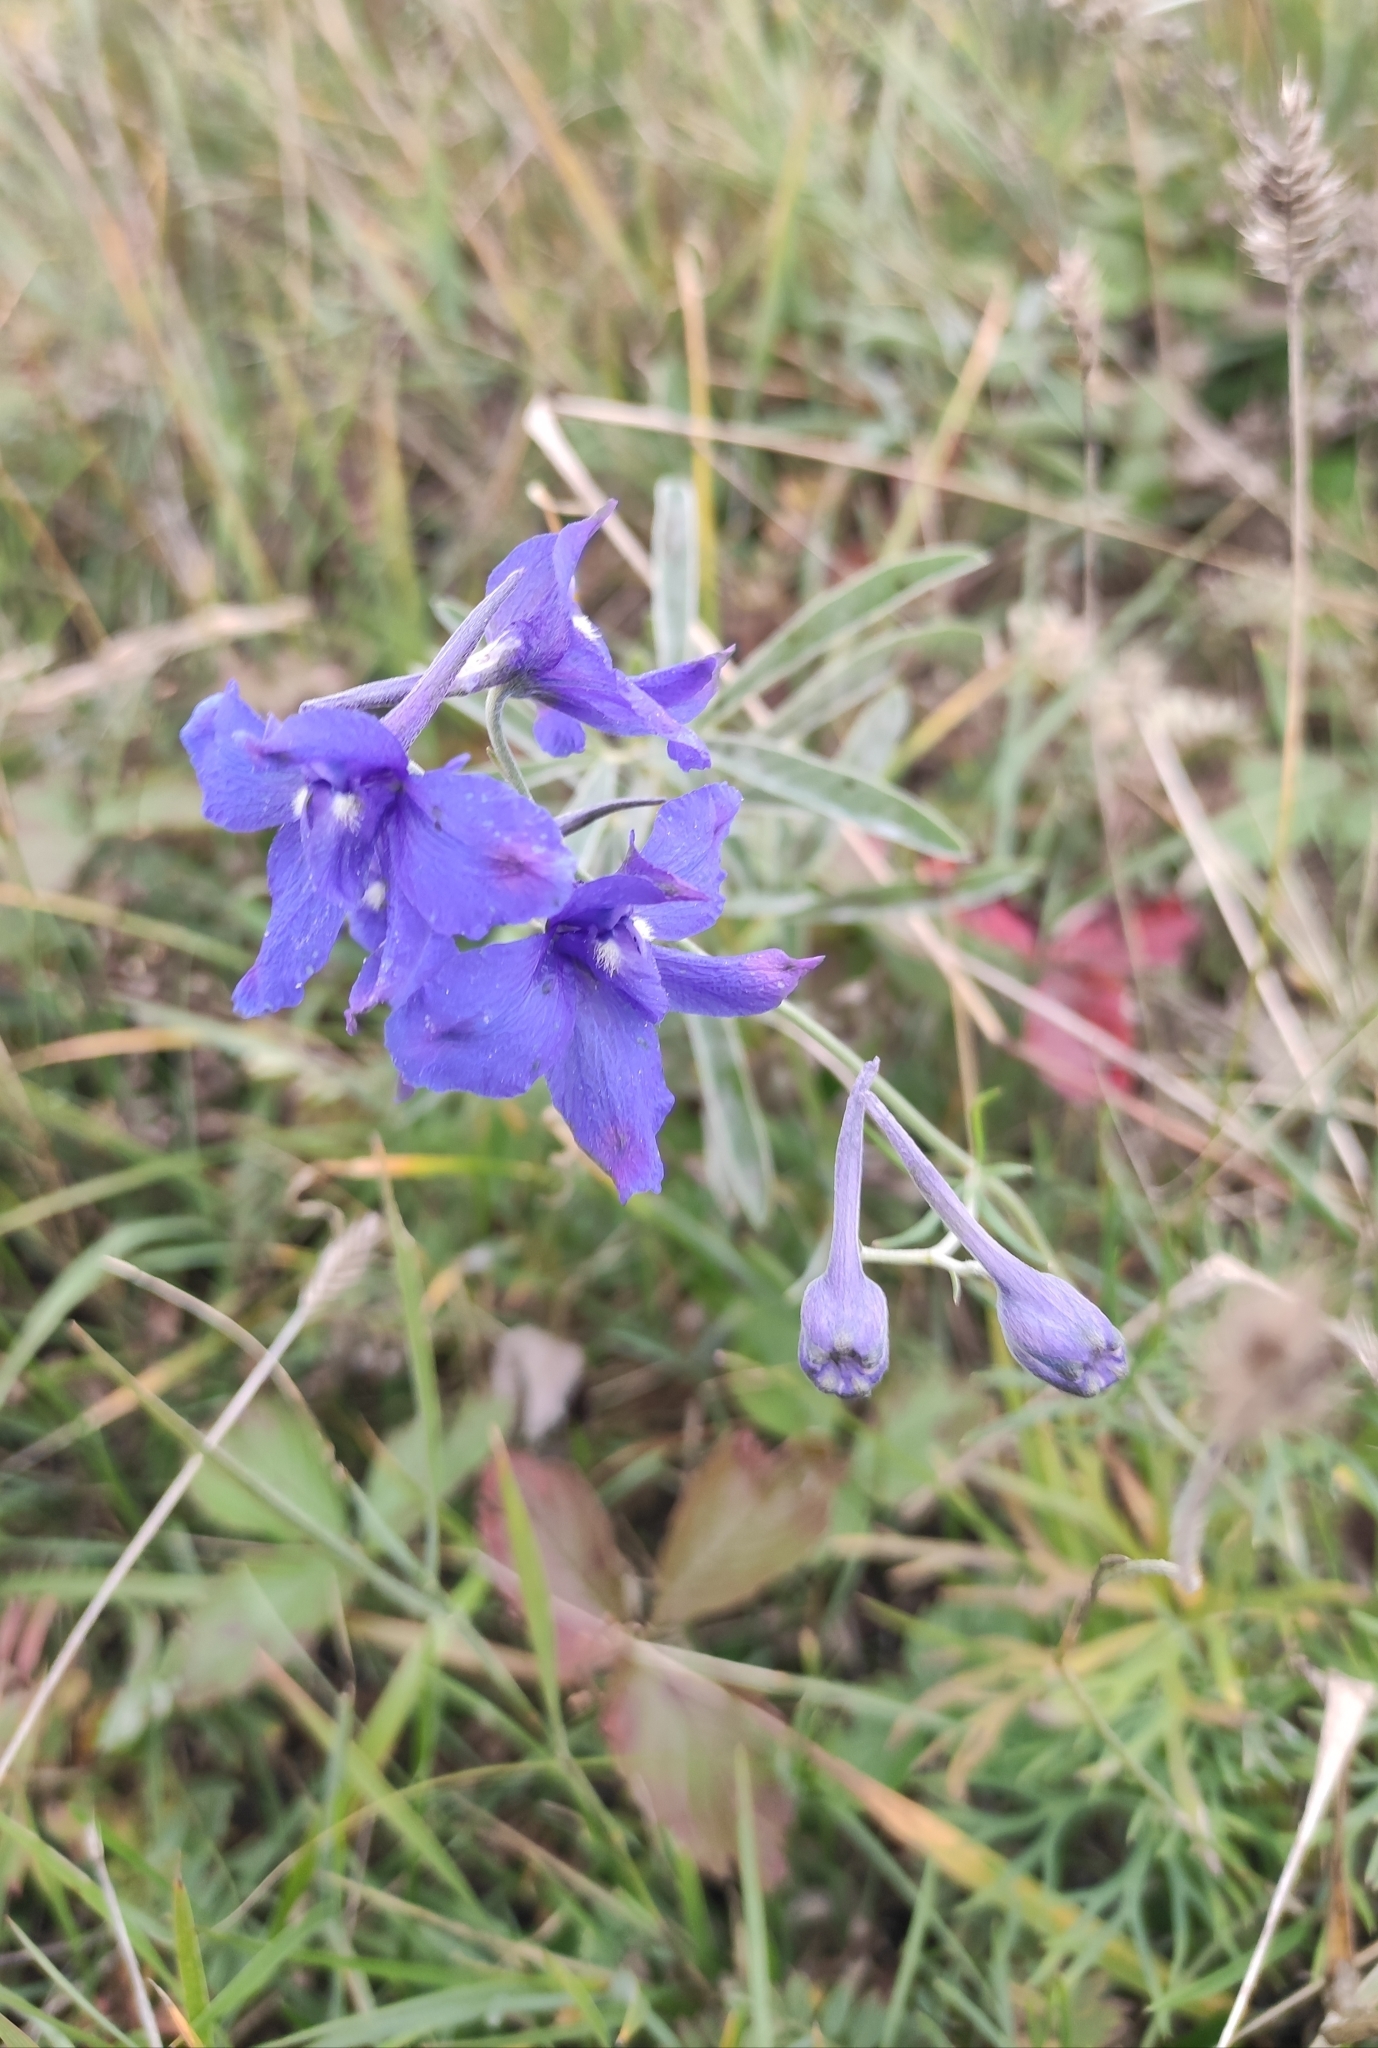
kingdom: Plantae
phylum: Tracheophyta
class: Magnoliopsida
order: Ranunculales
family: Ranunculaceae
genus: Delphinium
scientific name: Delphinium grandiflorum
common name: Siberian larkspur
